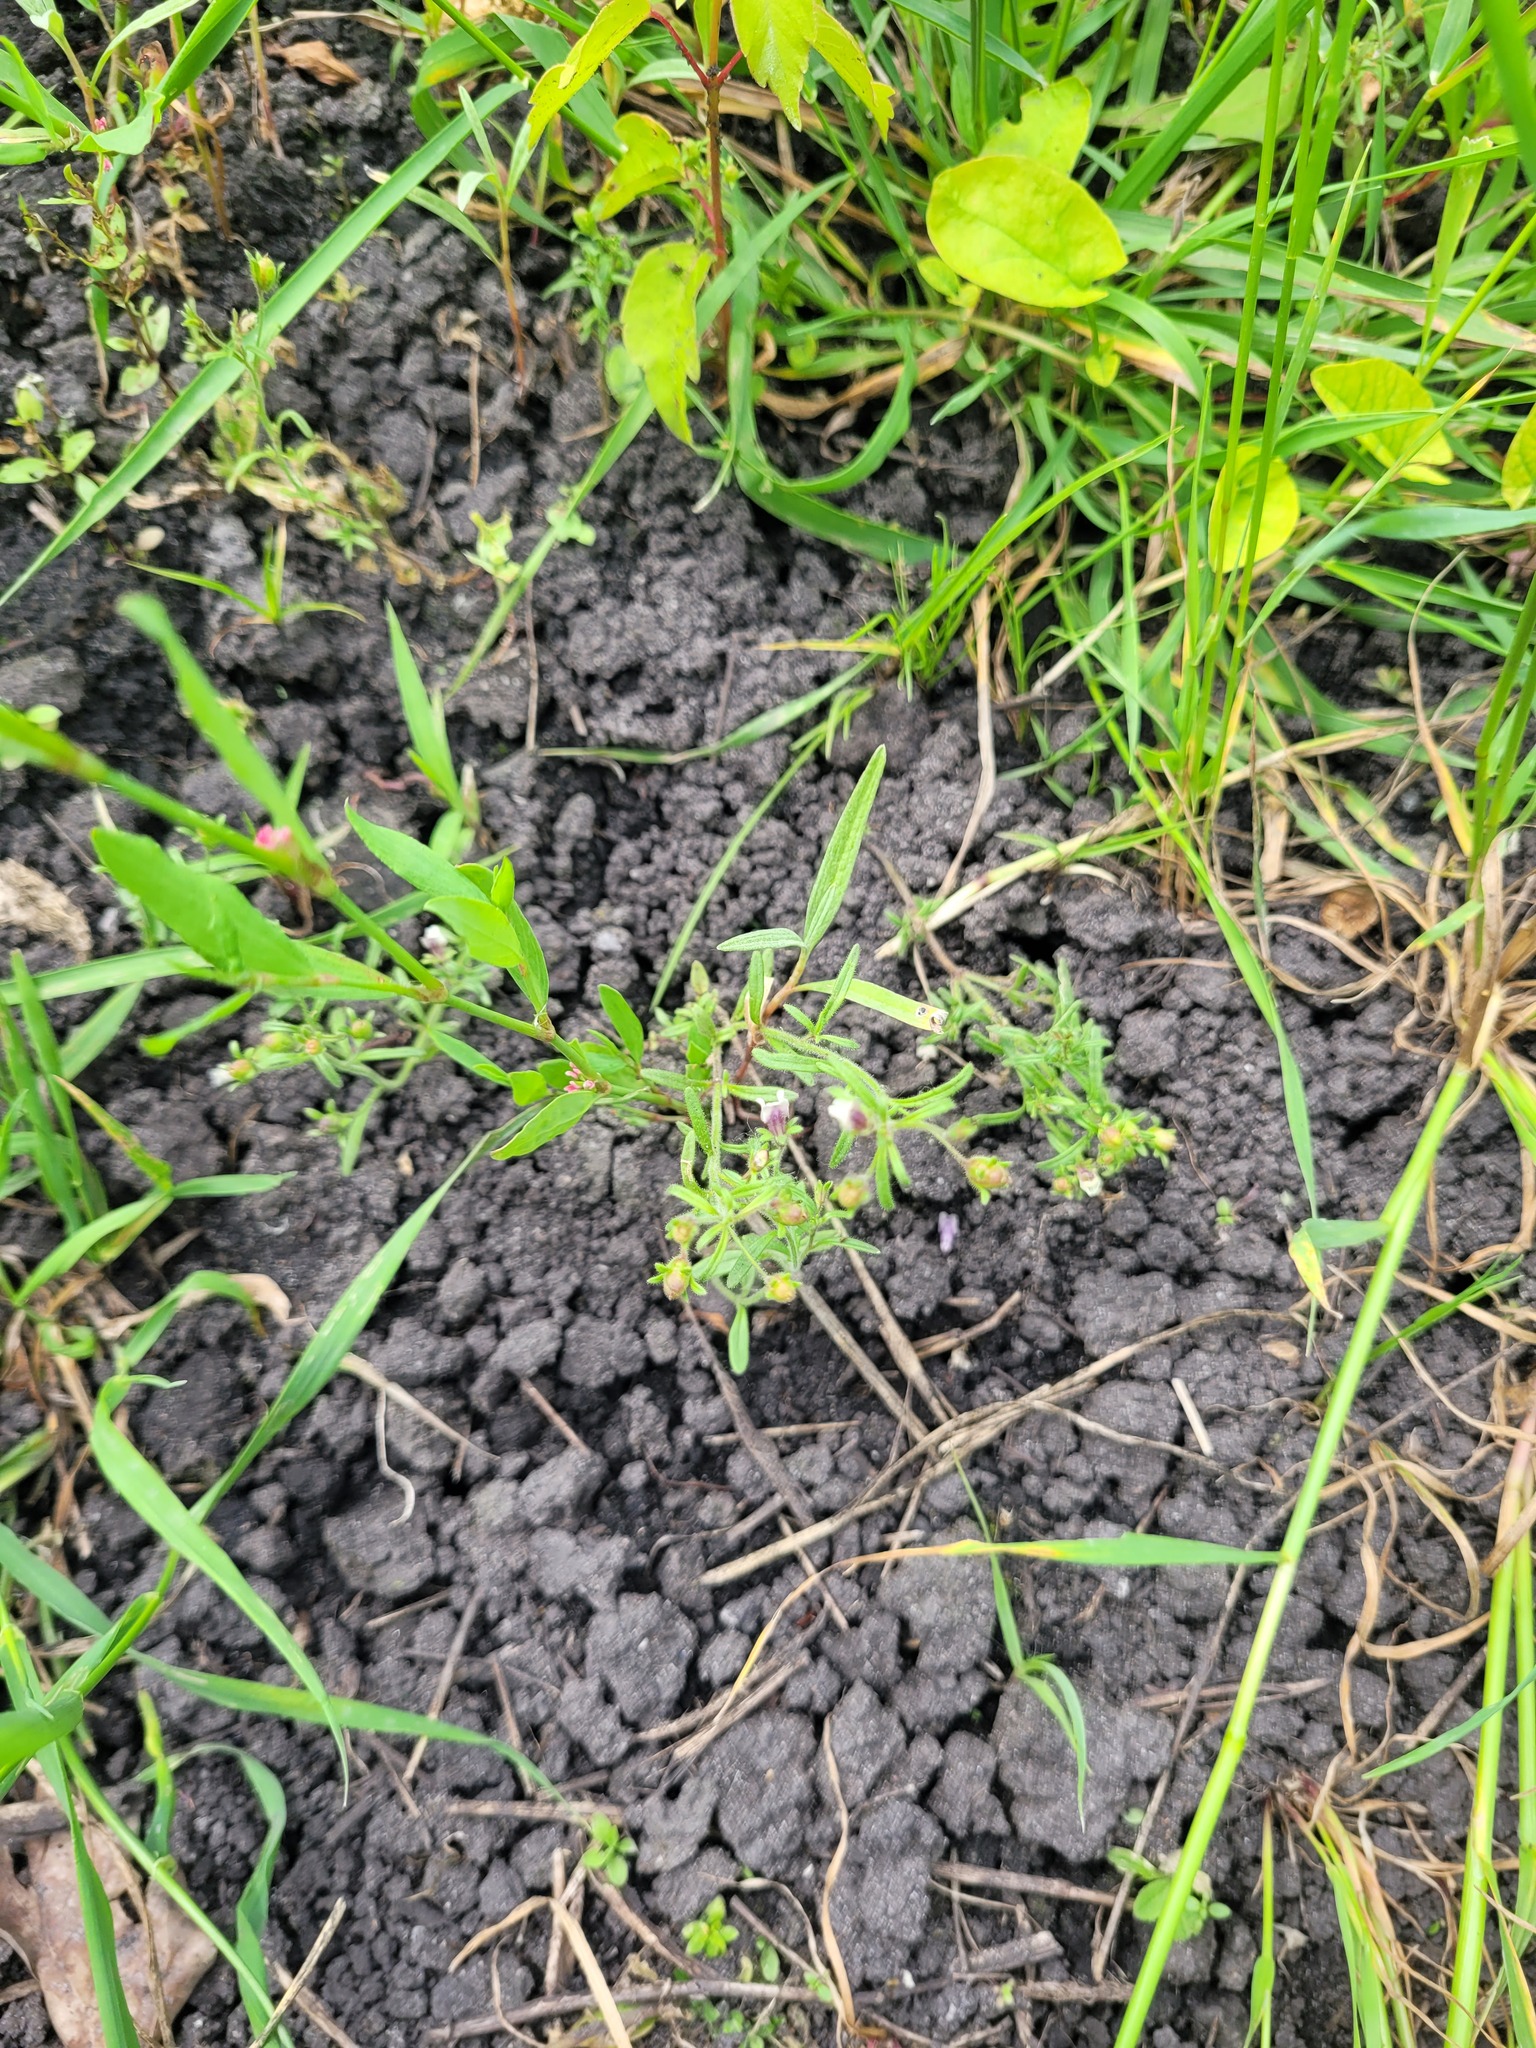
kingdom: Plantae
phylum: Tracheophyta
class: Magnoliopsida
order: Lamiales
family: Plantaginaceae
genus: Chaenorhinum
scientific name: Chaenorhinum minus
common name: Dwarf snapdragon
